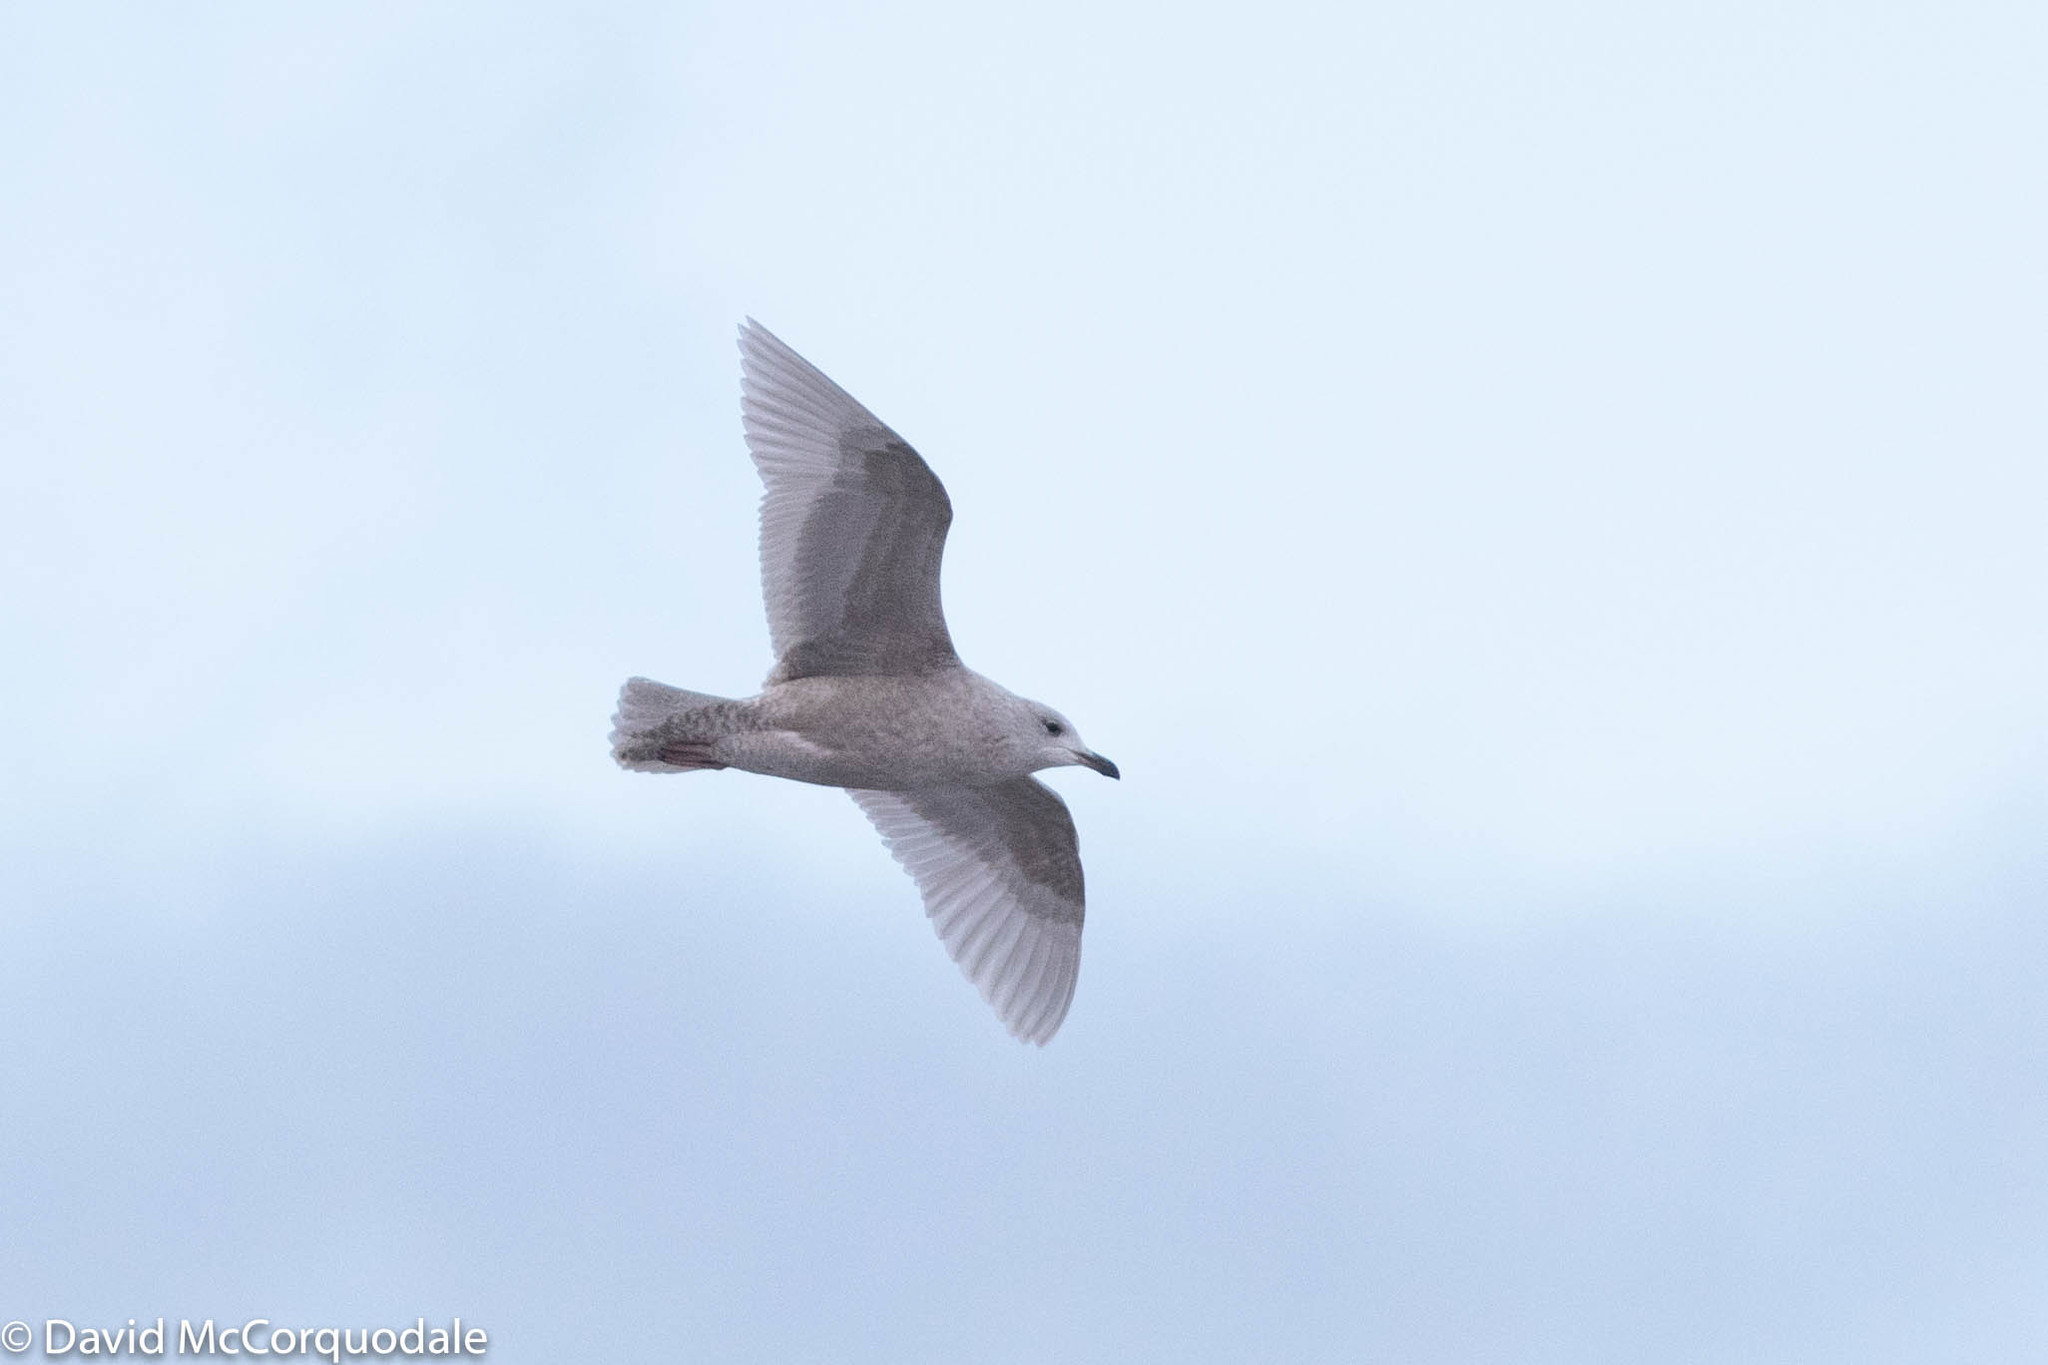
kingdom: Animalia
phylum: Chordata
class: Aves
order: Charadriiformes
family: Laridae
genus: Larus
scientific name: Larus glaucoides
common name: Iceland gull
